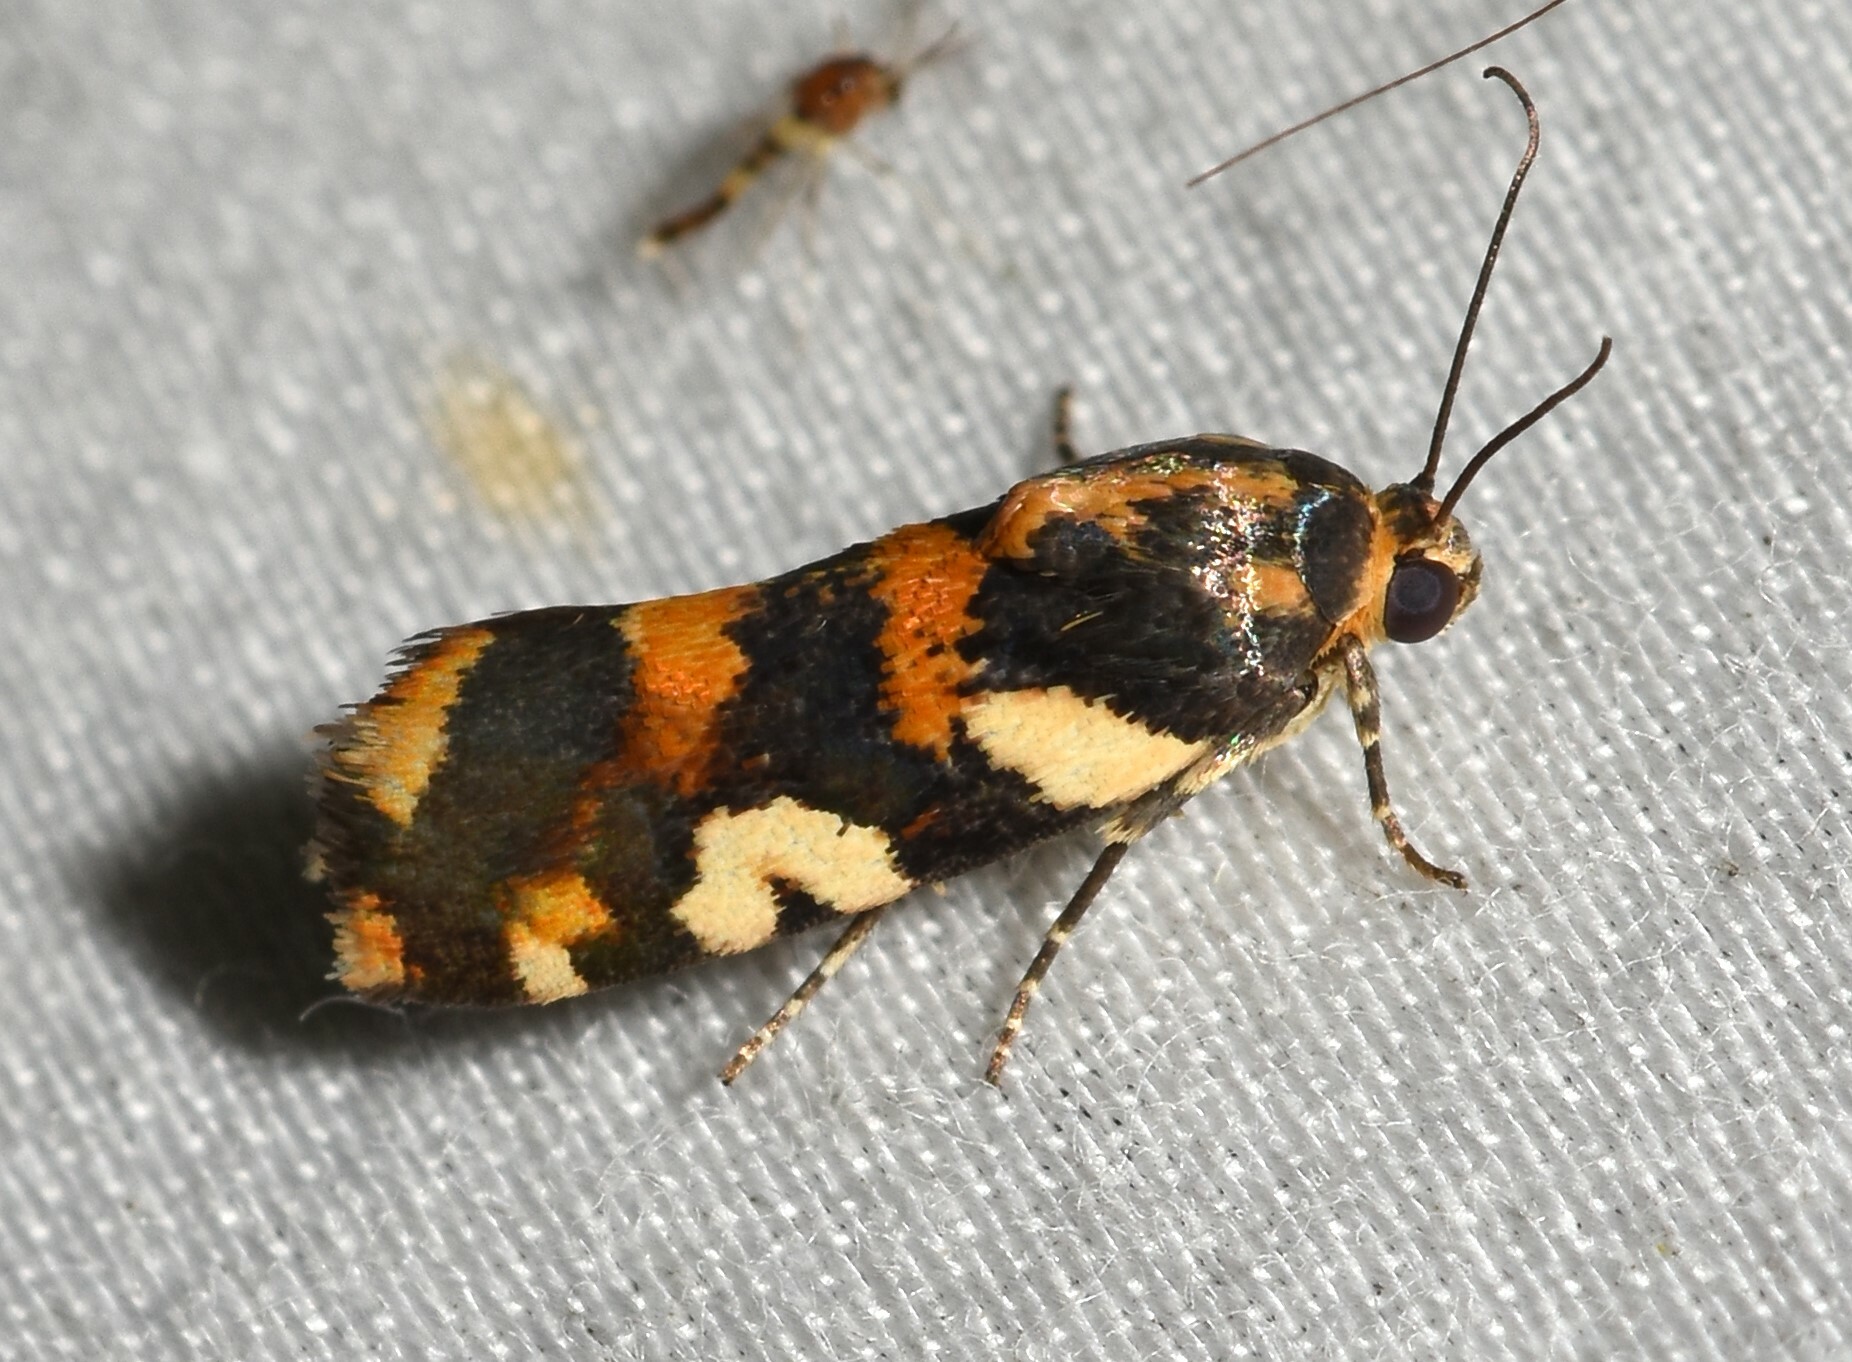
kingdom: Animalia
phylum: Arthropoda
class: Insecta
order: Lepidoptera
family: Noctuidae
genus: Acontia
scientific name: Acontia dama
